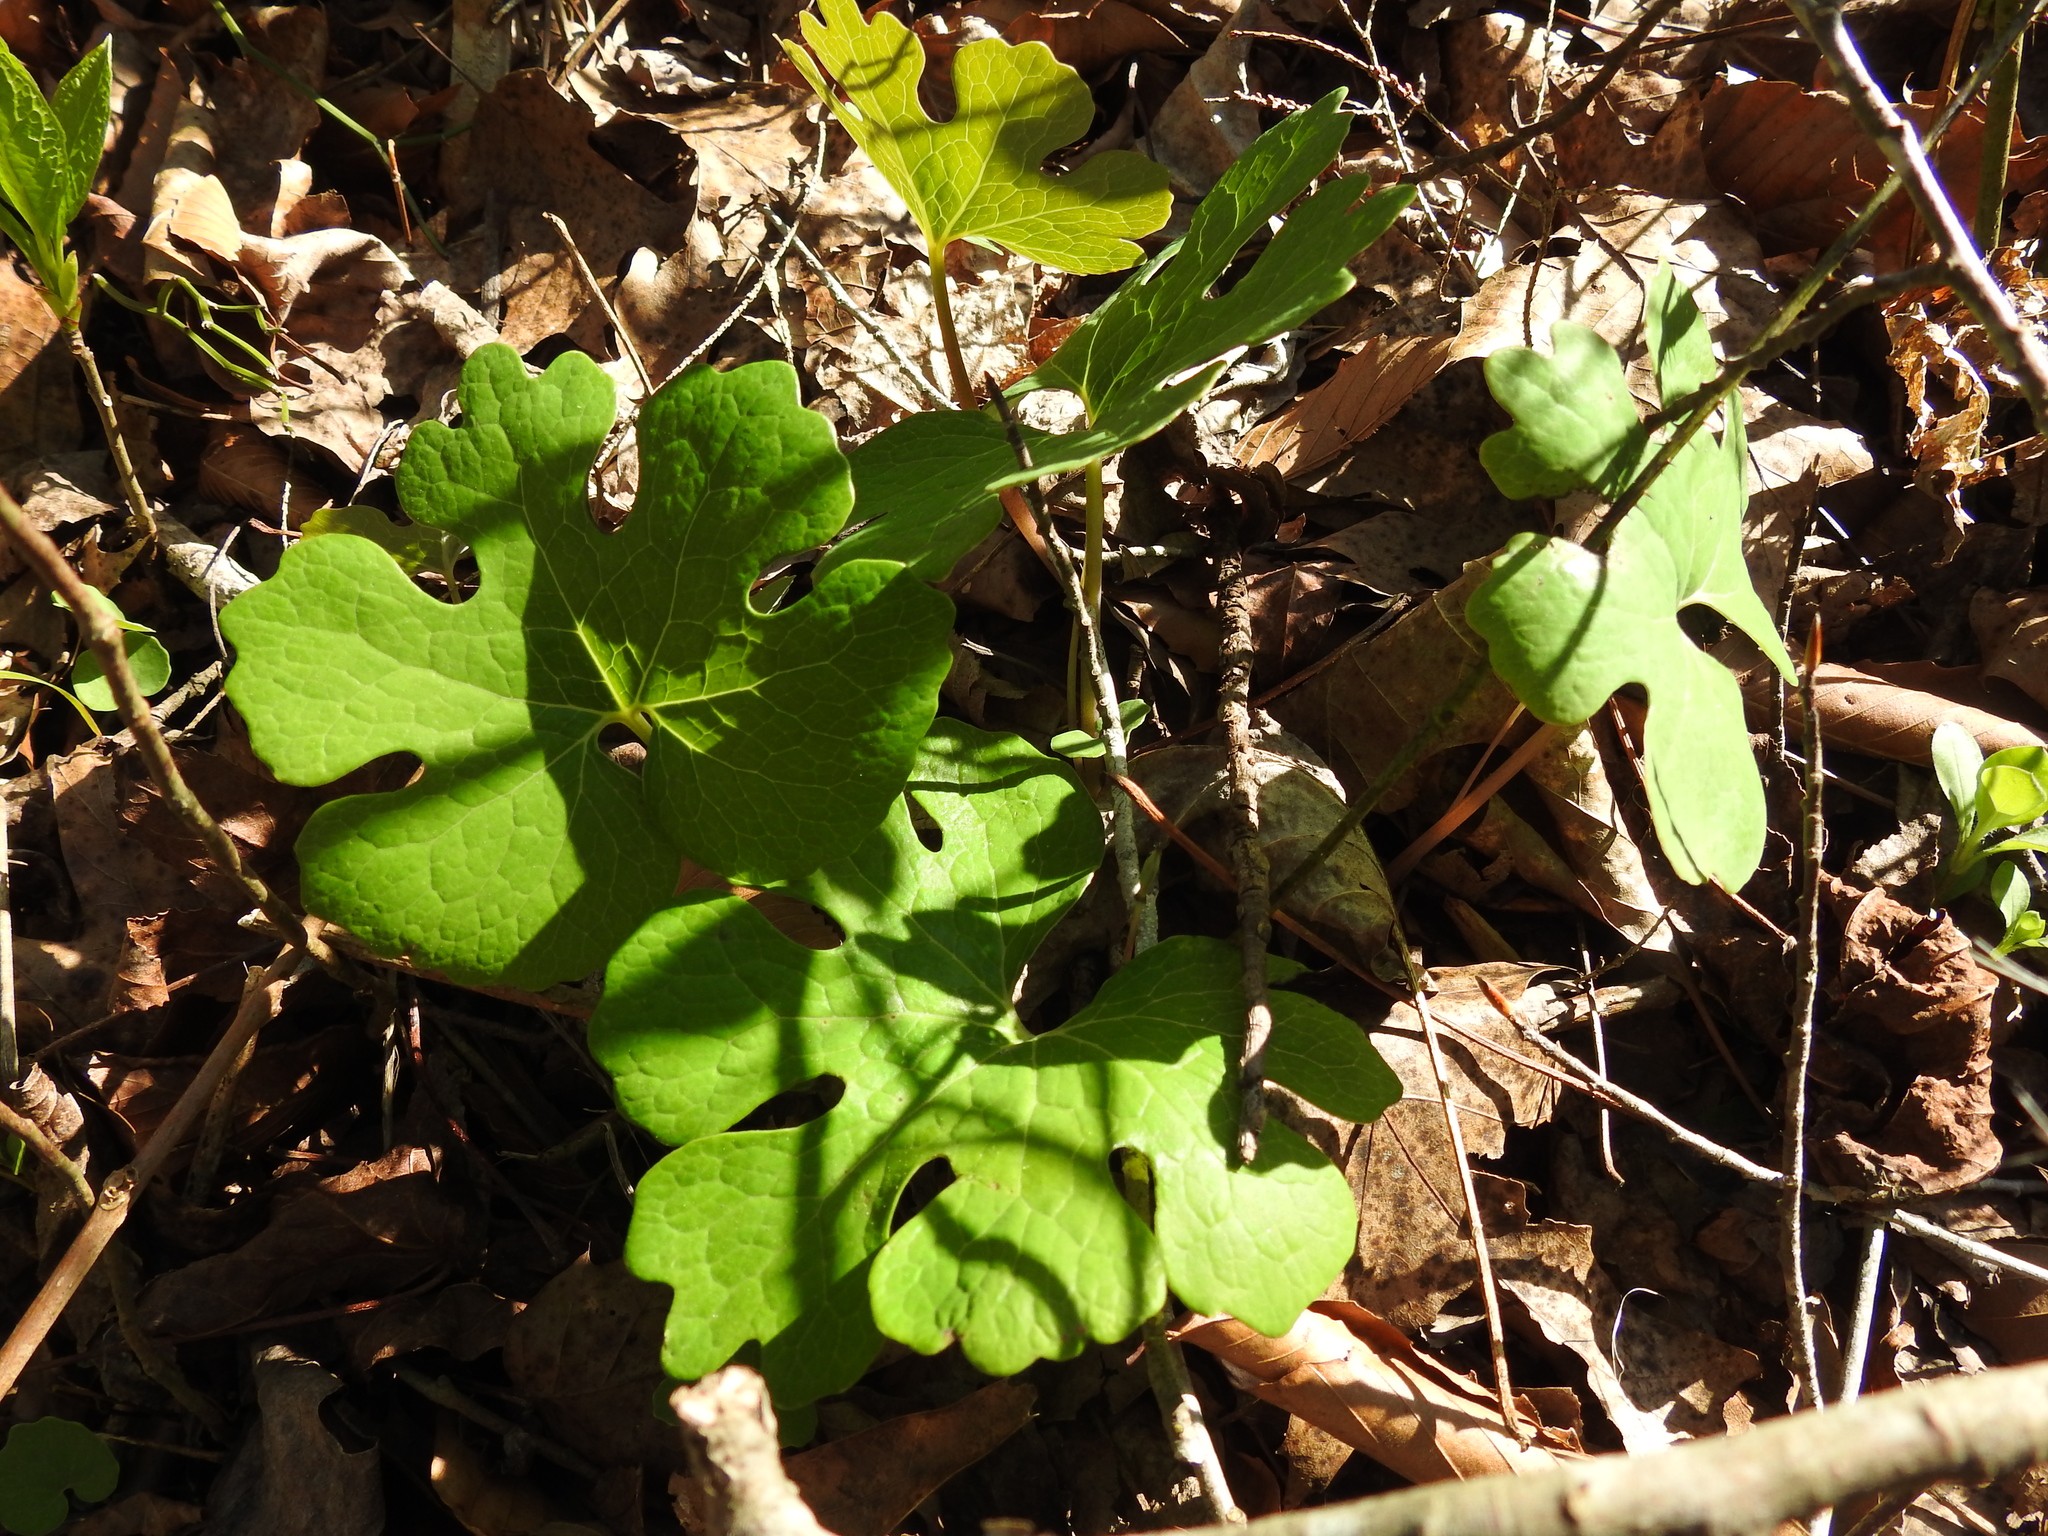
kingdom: Plantae
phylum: Tracheophyta
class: Magnoliopsida
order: Ranunculales
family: Papaveraceae
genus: Sanguinaria
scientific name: Sanguinaria canadensis
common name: Bloodroot
